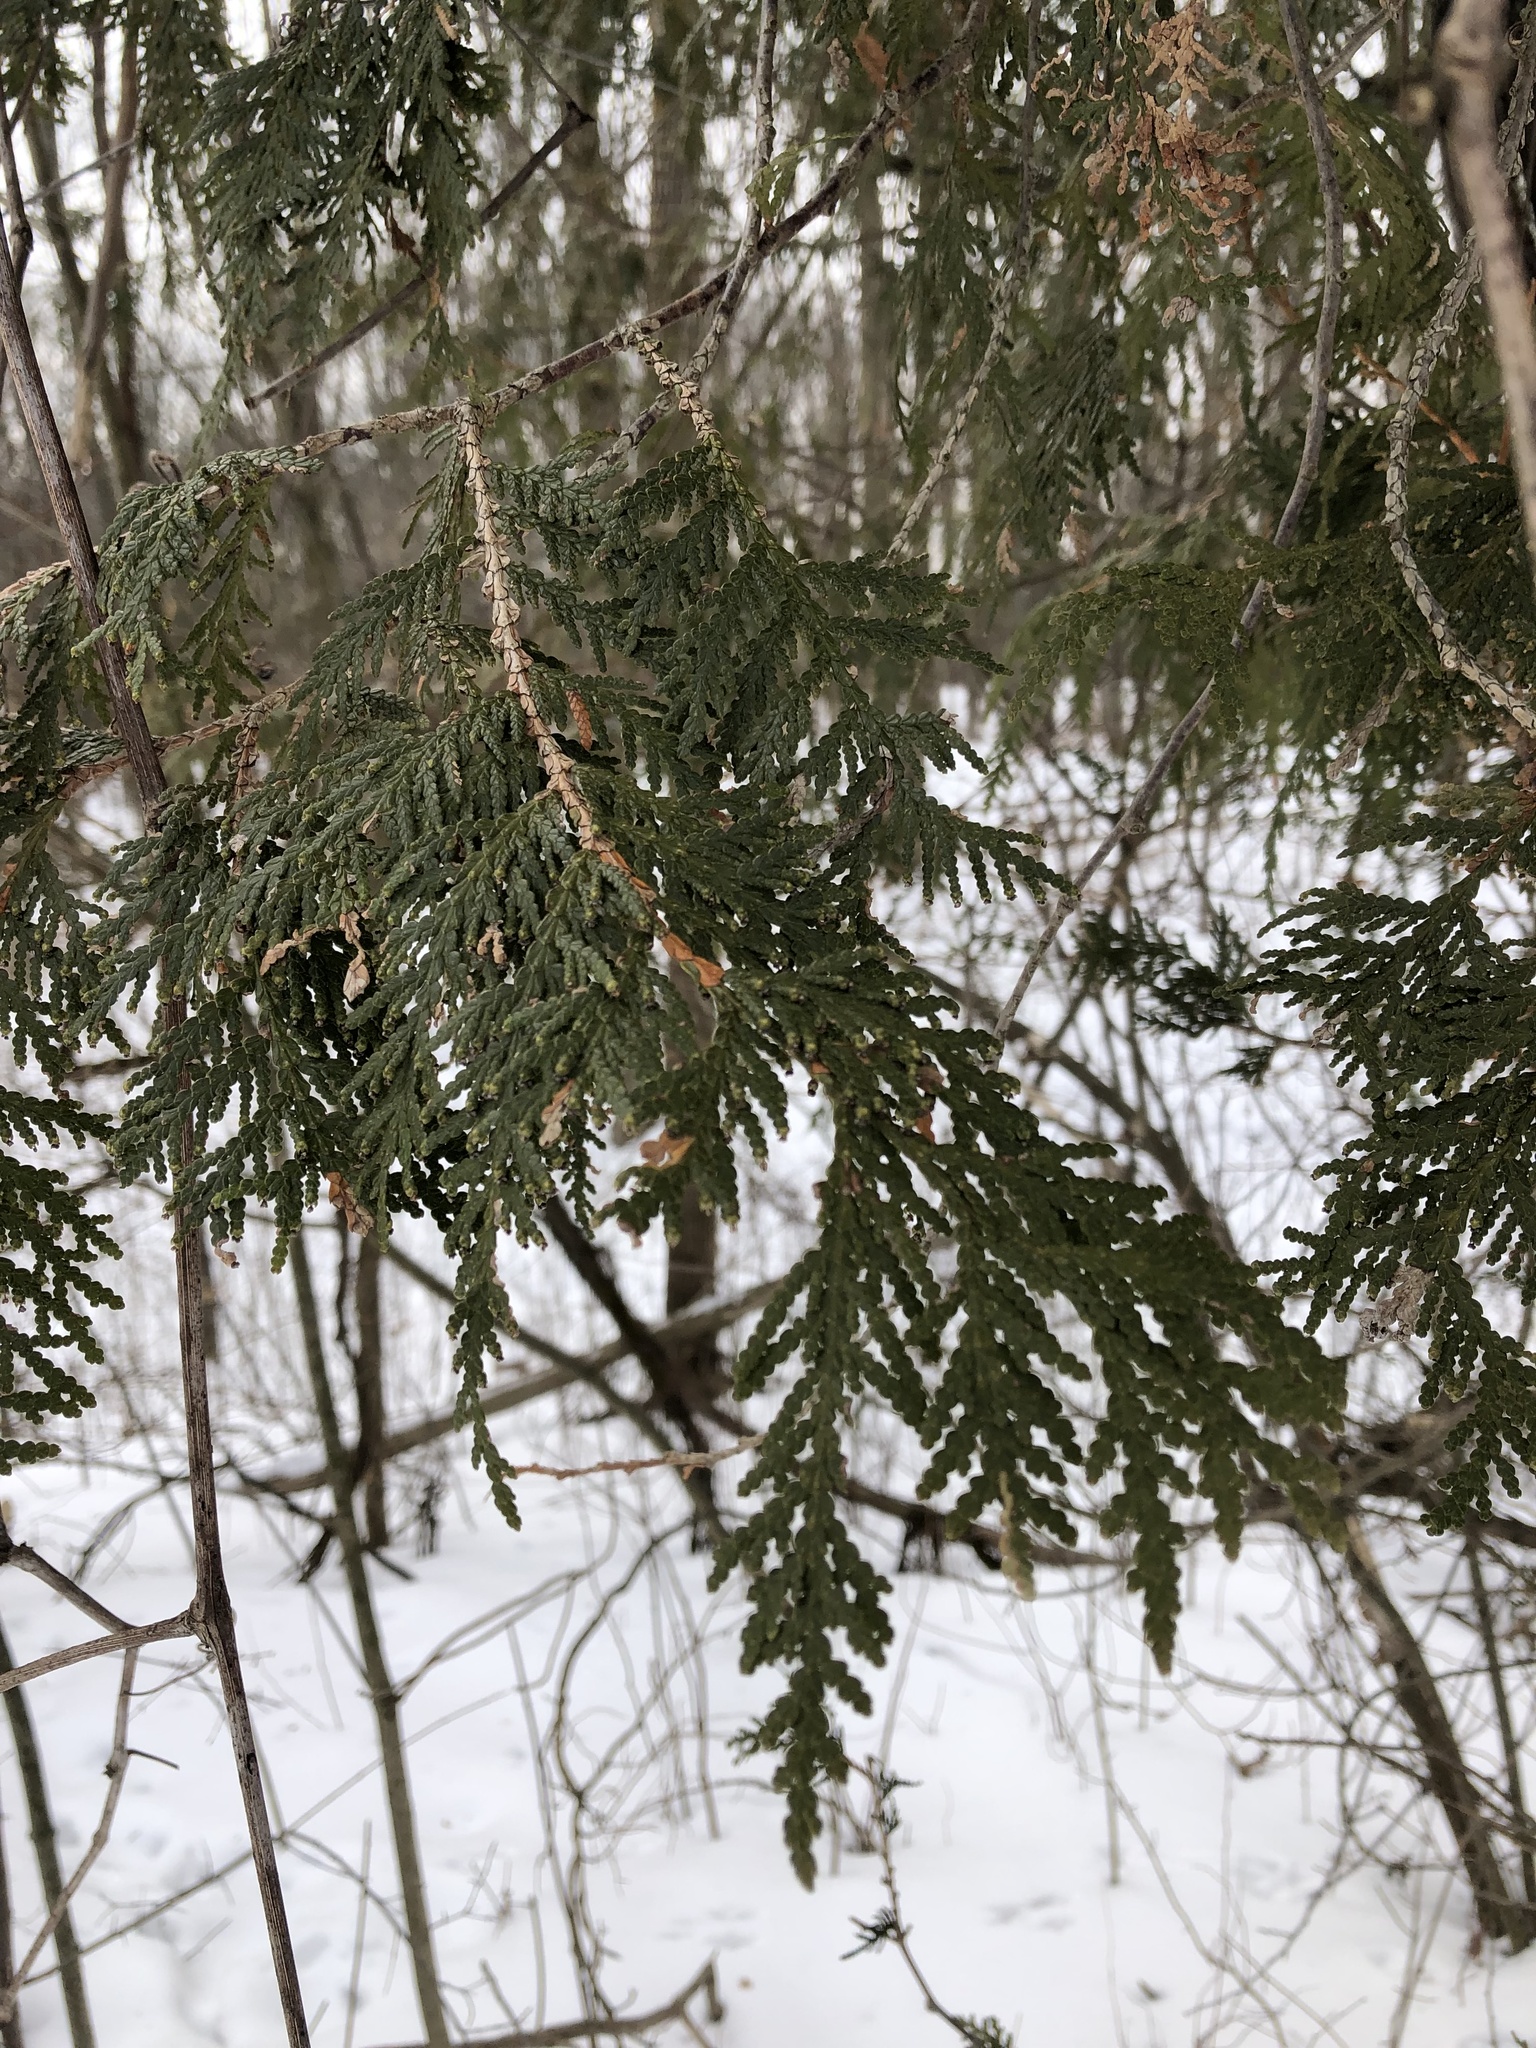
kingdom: Plantae
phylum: Tracheophyta
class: Pinopsida
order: Pinales
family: Cupressaceae
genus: Thuja
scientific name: Thuja occidentalis
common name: Northern white-cedar
